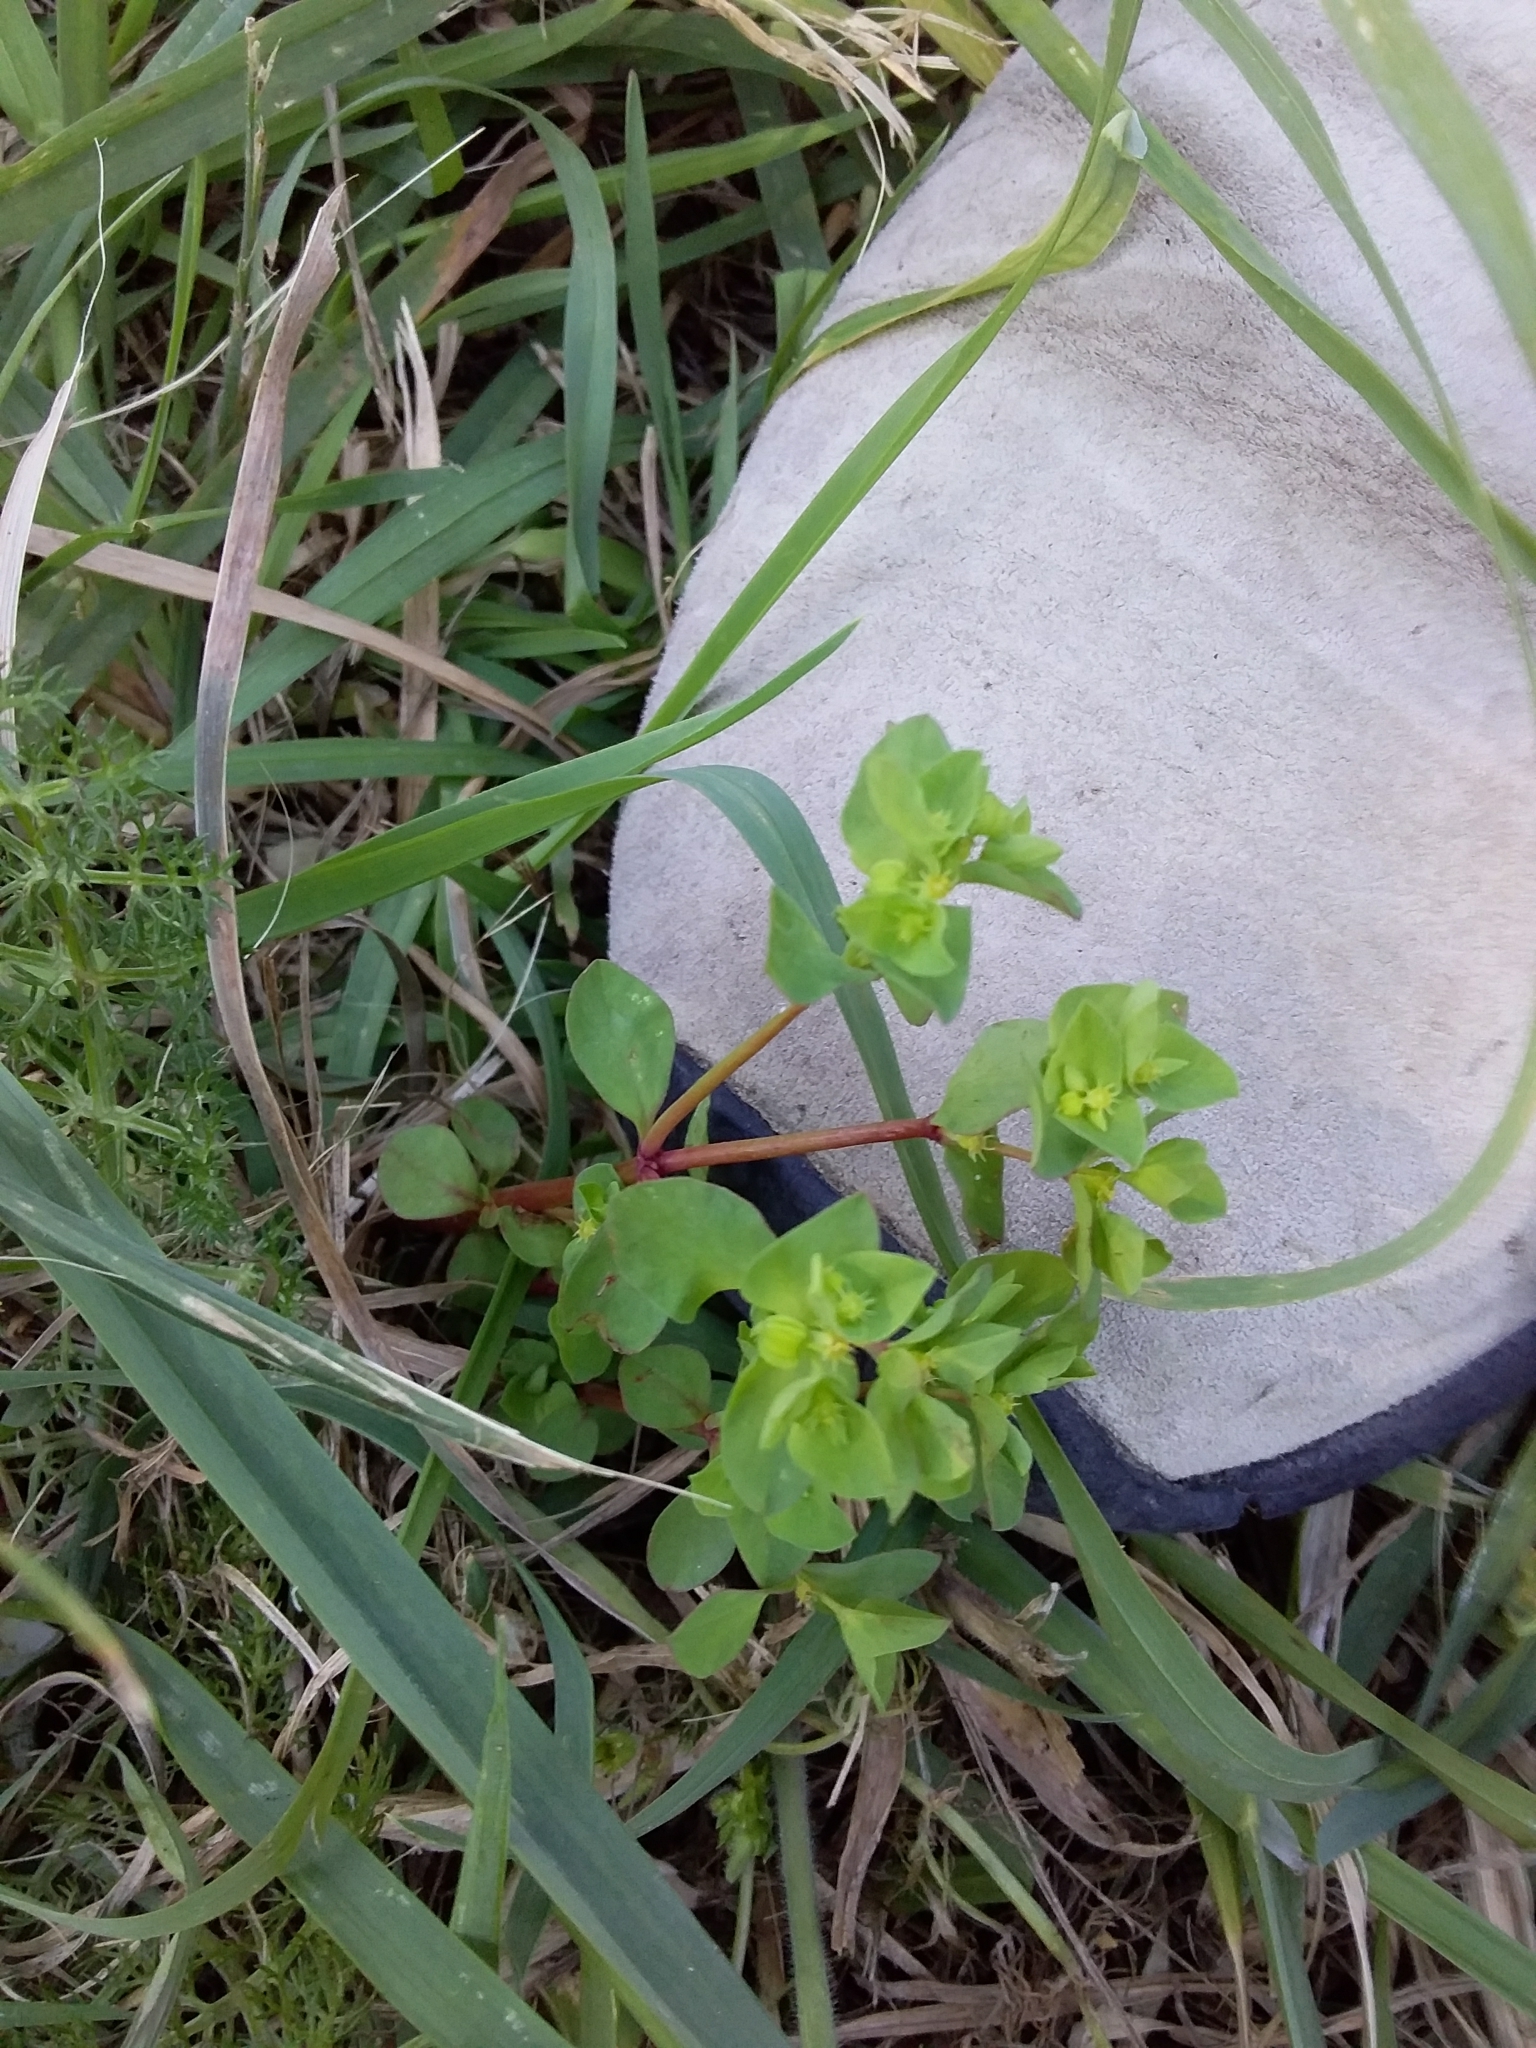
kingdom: Plantae
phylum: Tracheophyta
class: Magnoliopsida
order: Malpighiales
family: Euphorbiaceae
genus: Euphorbia
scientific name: Euphorbia peplus
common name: Petty spurge
